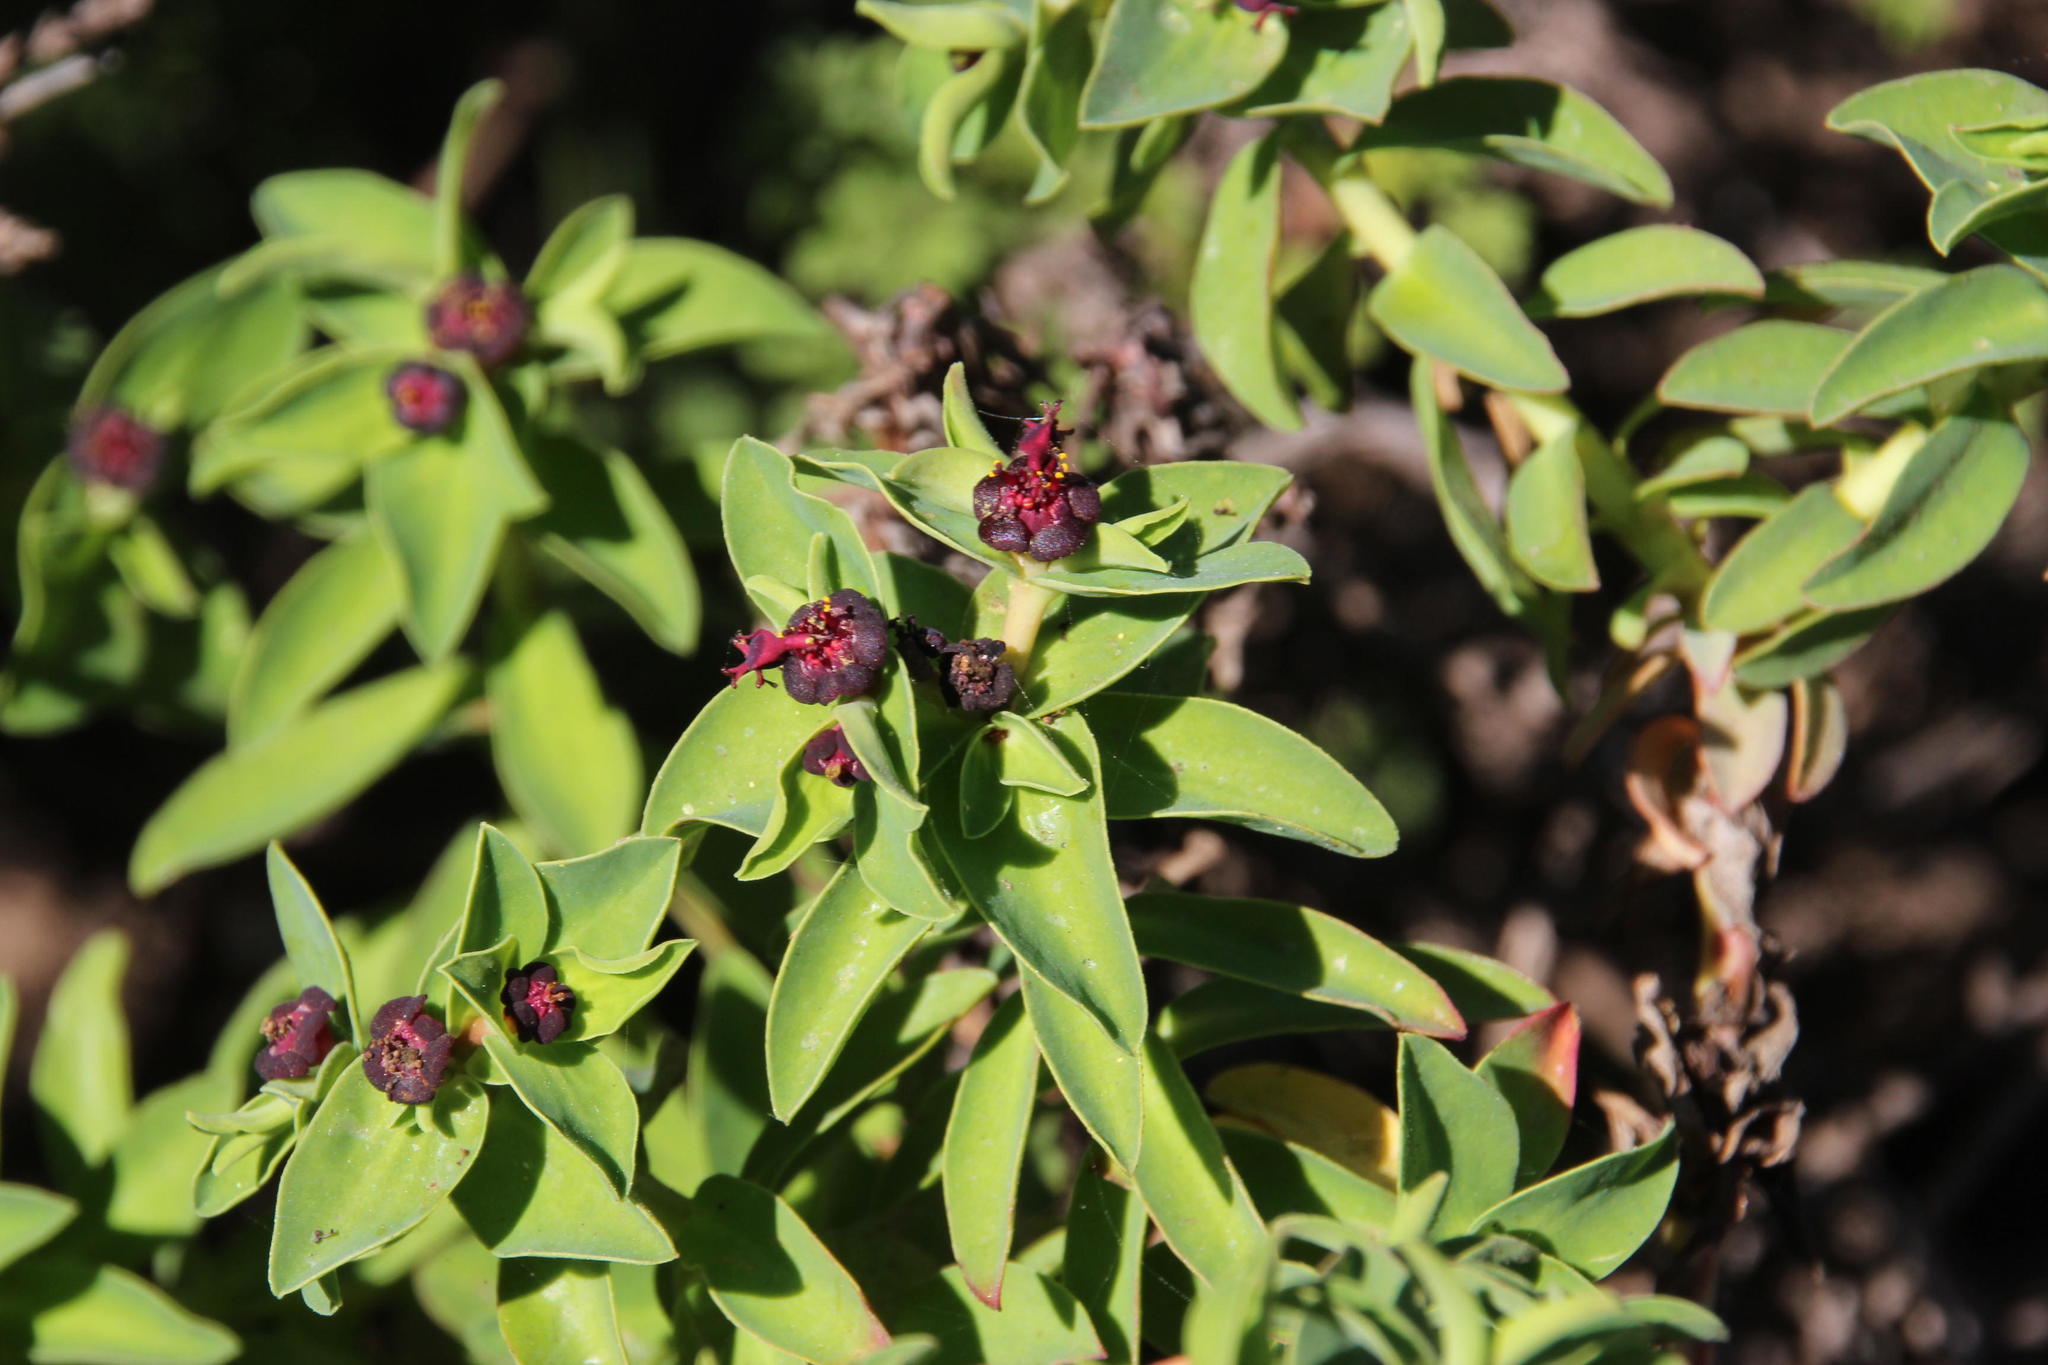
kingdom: Plantae
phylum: Tracheophyta
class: Magnoliopsida
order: Malpighiales
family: Euphorbiaceae
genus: Euphorbia
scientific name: Euphorbia portulacoides
